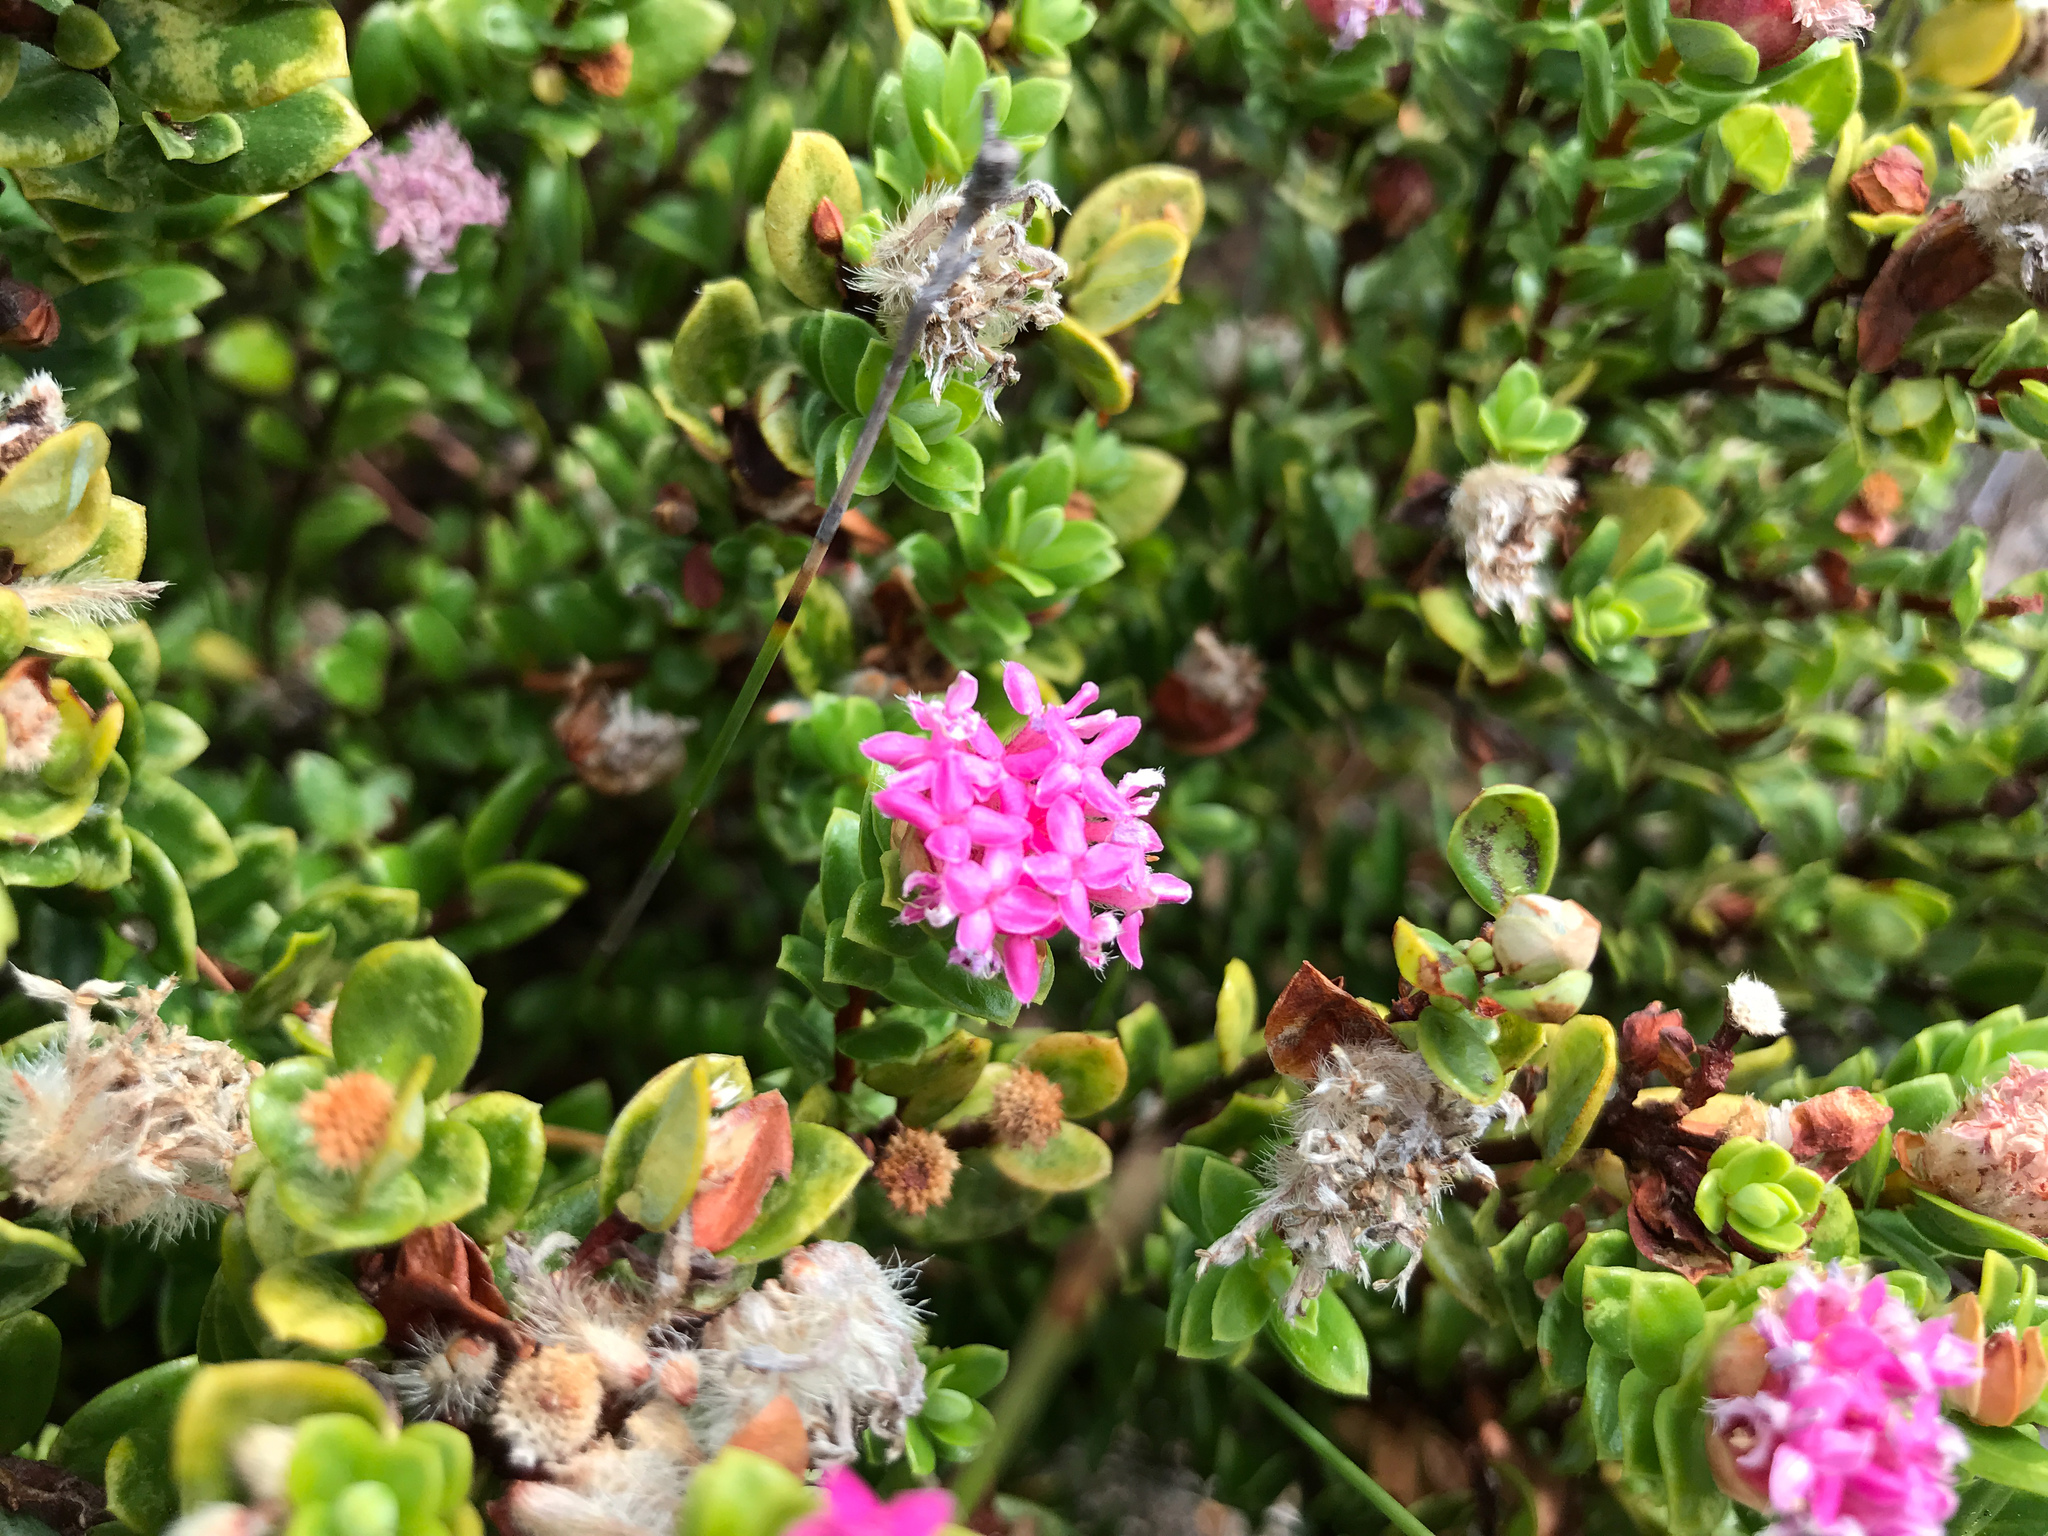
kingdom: Plantae
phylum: Tracheophyta
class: Magnoliopsida
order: Malvales
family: Thymelaeaceae
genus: Pimelea
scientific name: Pimelea ferruginea
